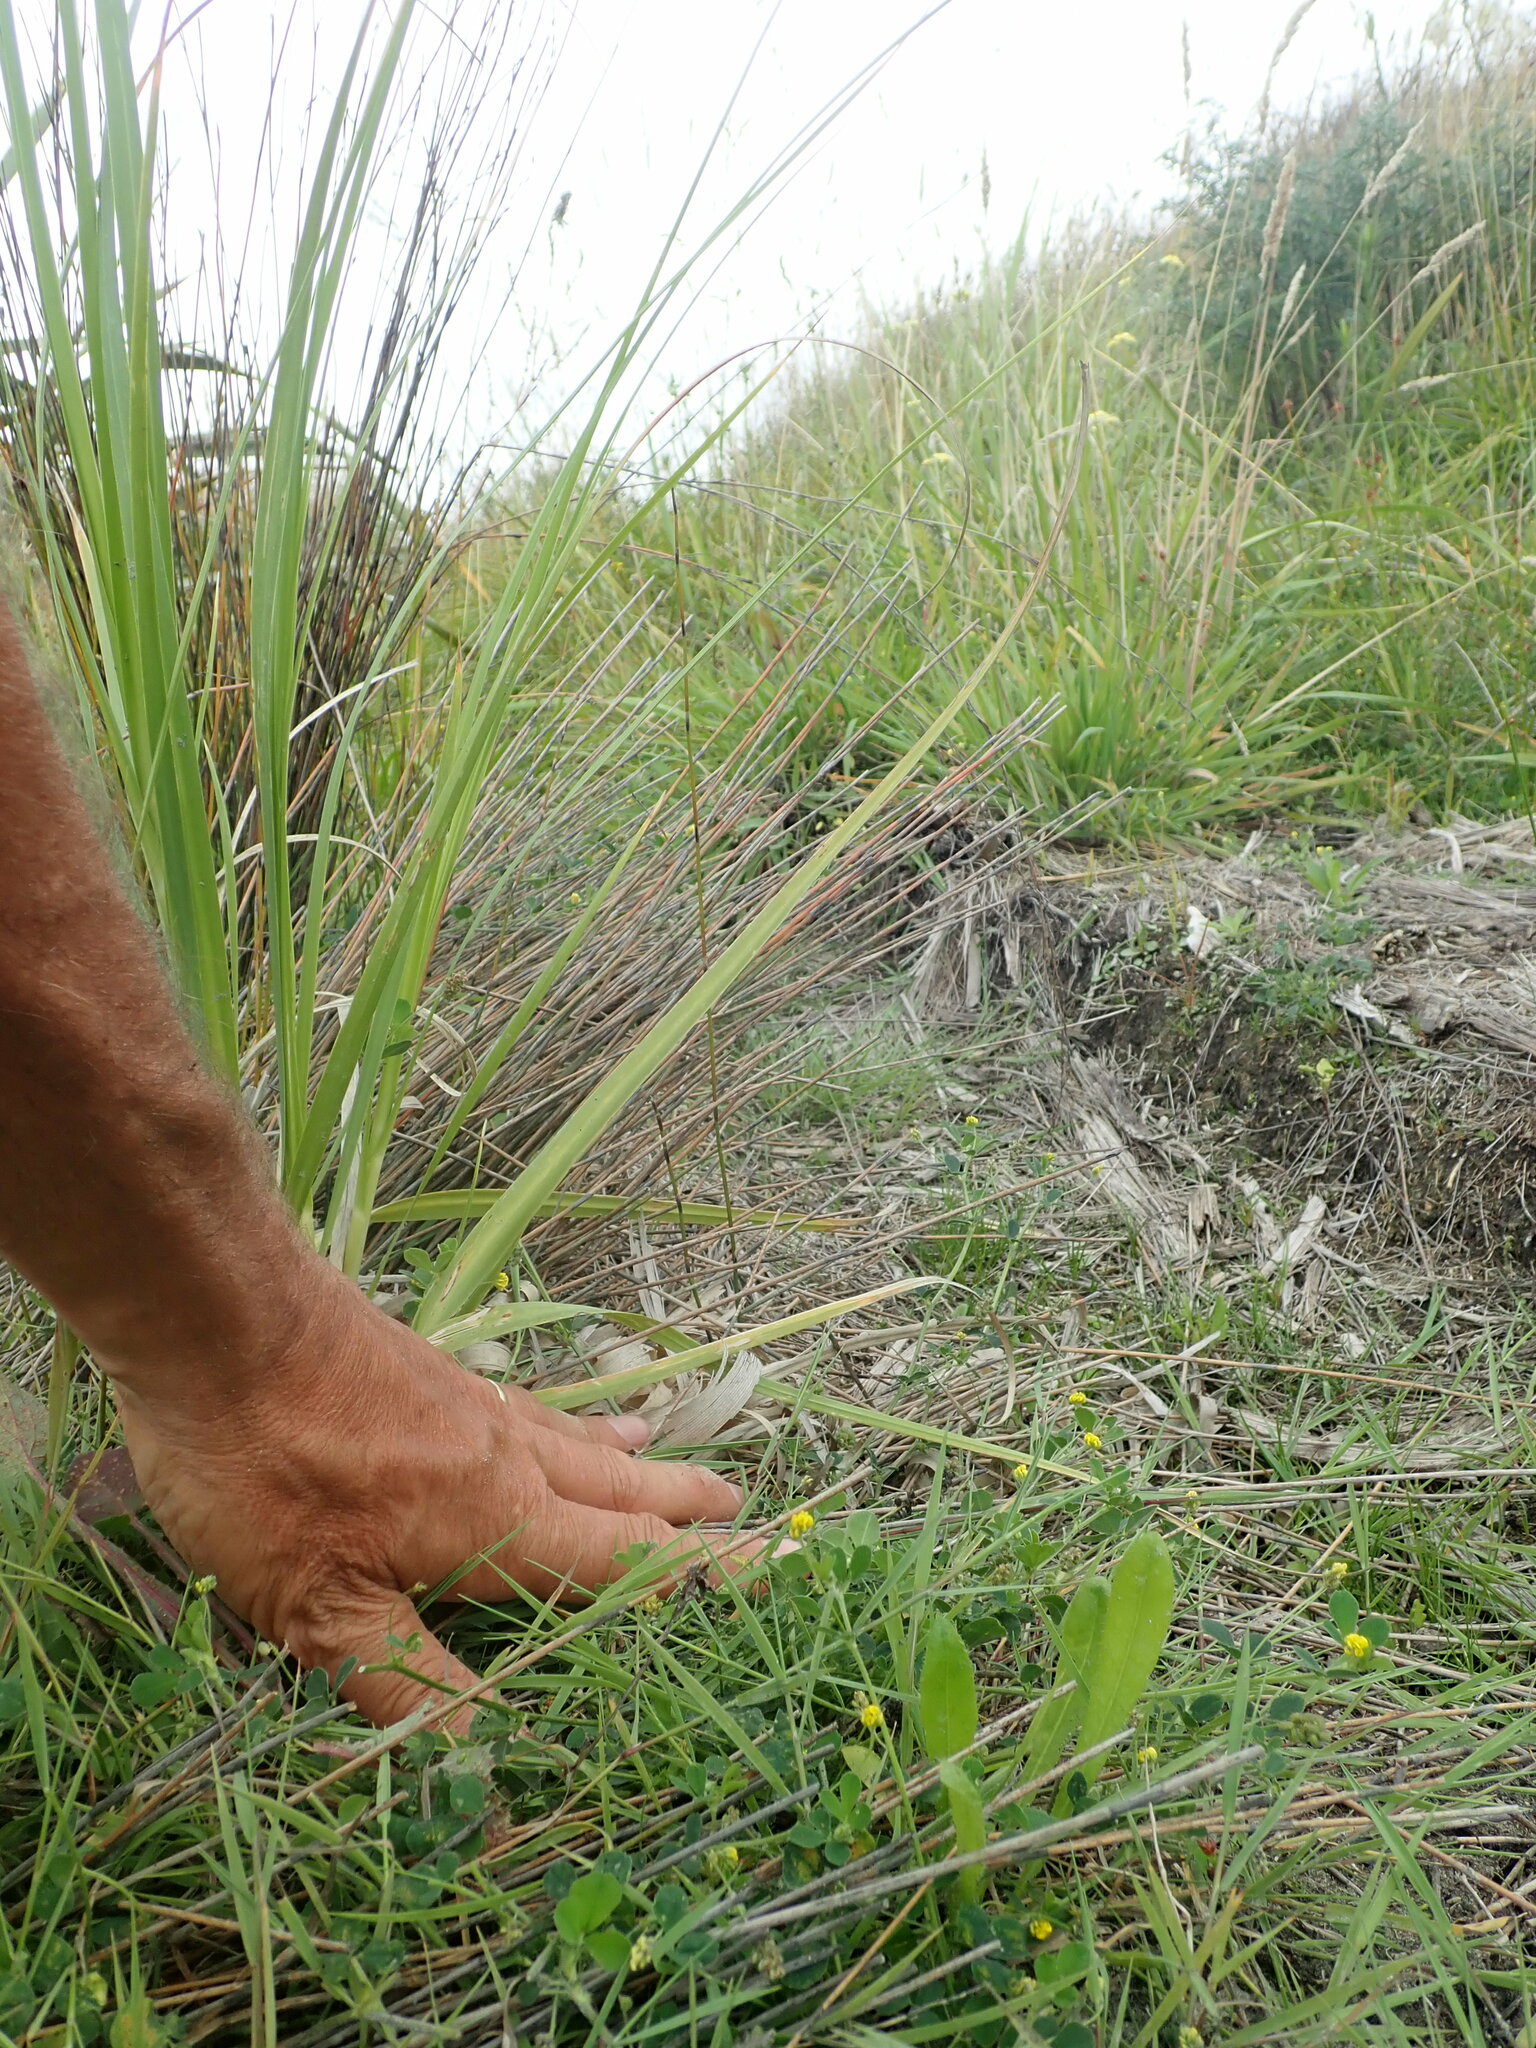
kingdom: Plantae
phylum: Tracheophyta
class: Magnoliopsida
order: Fabales
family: Fabaceae
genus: Medicago
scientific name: Medicago lupulina
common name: Black medick
